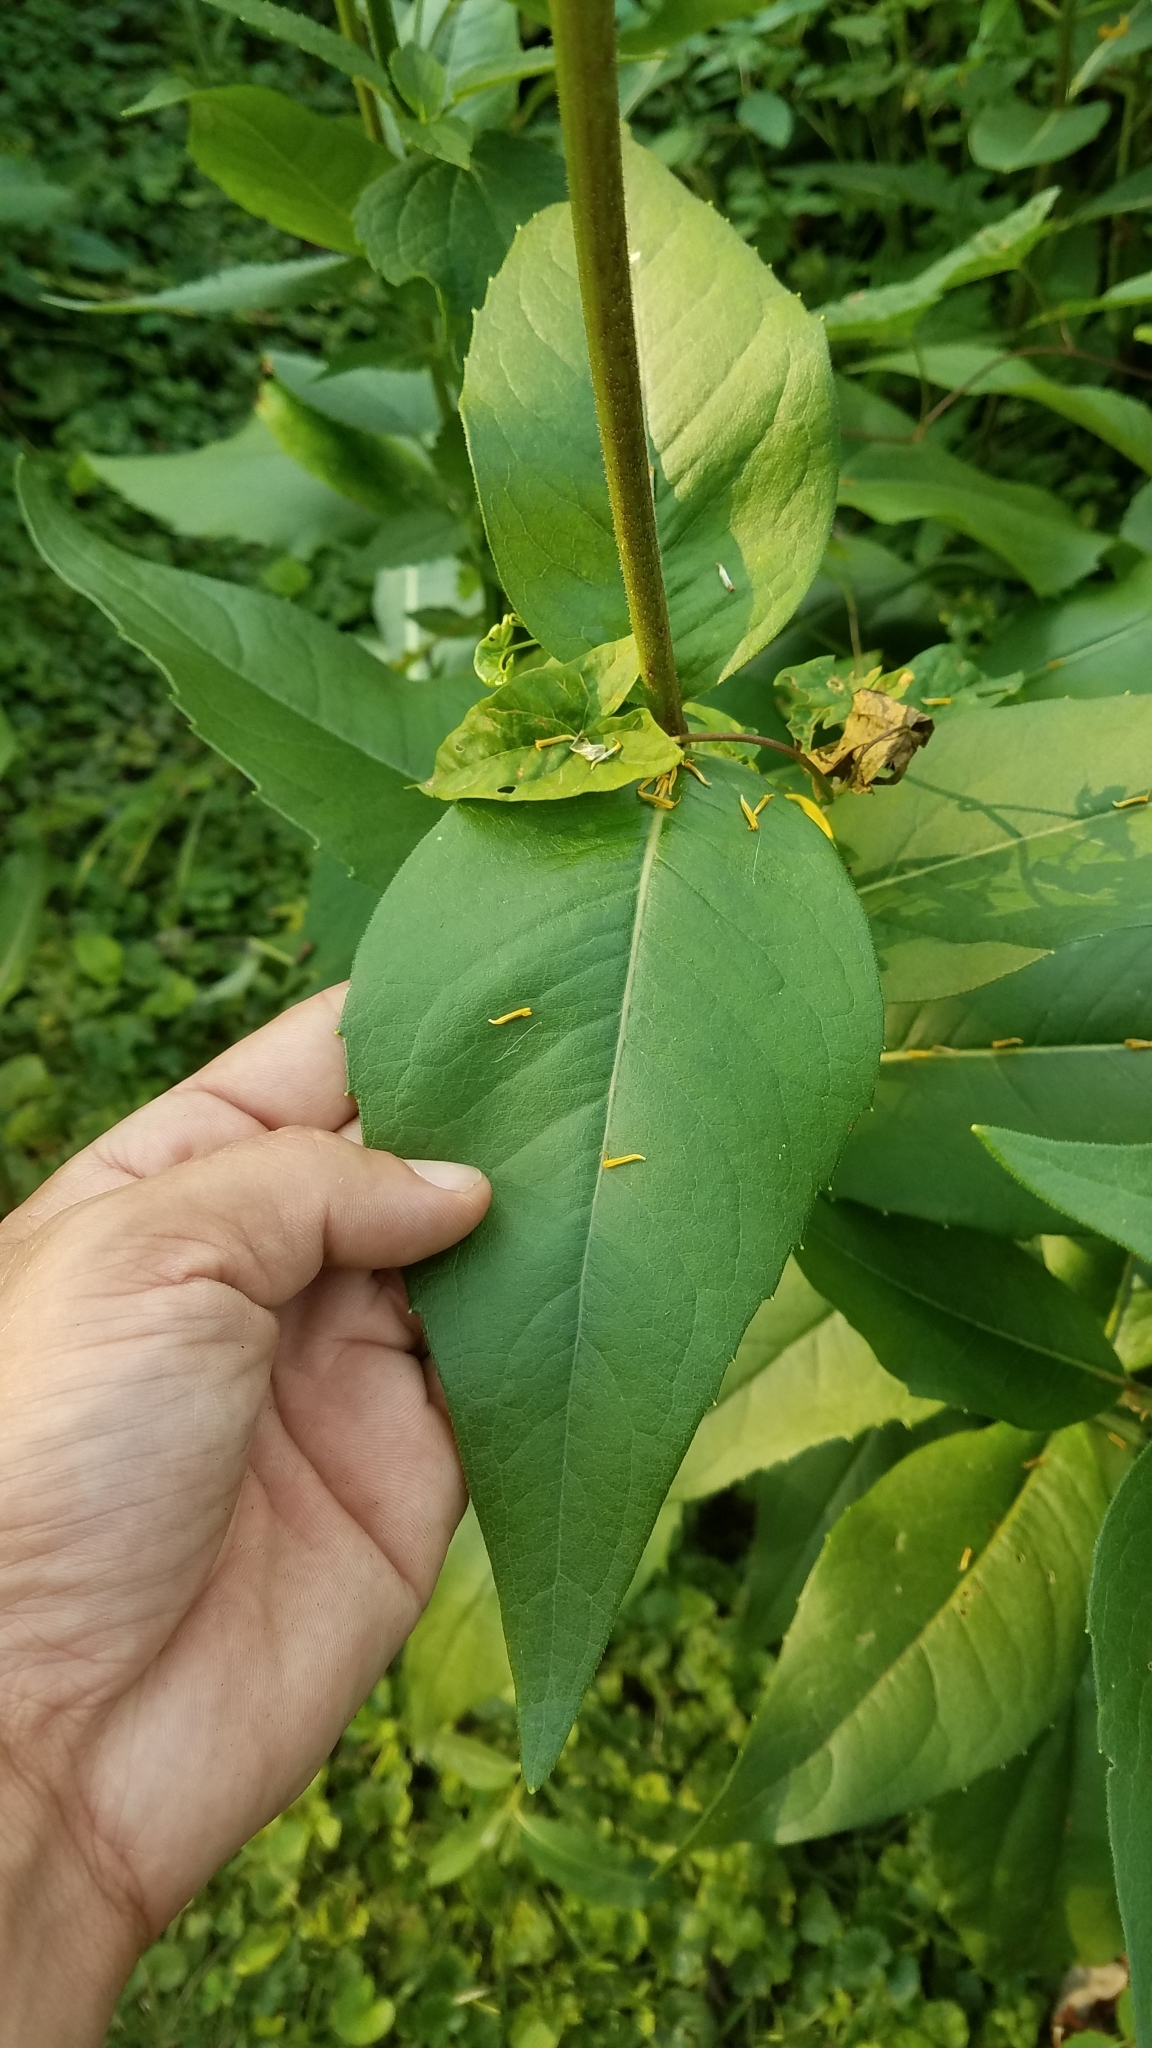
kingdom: Plantae
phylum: Tracheophyta
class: Magnoliopsida
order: Asterales
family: Asteraceae
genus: Silphium
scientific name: Silphium integrifolium
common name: Whole-leaf rosinweed
